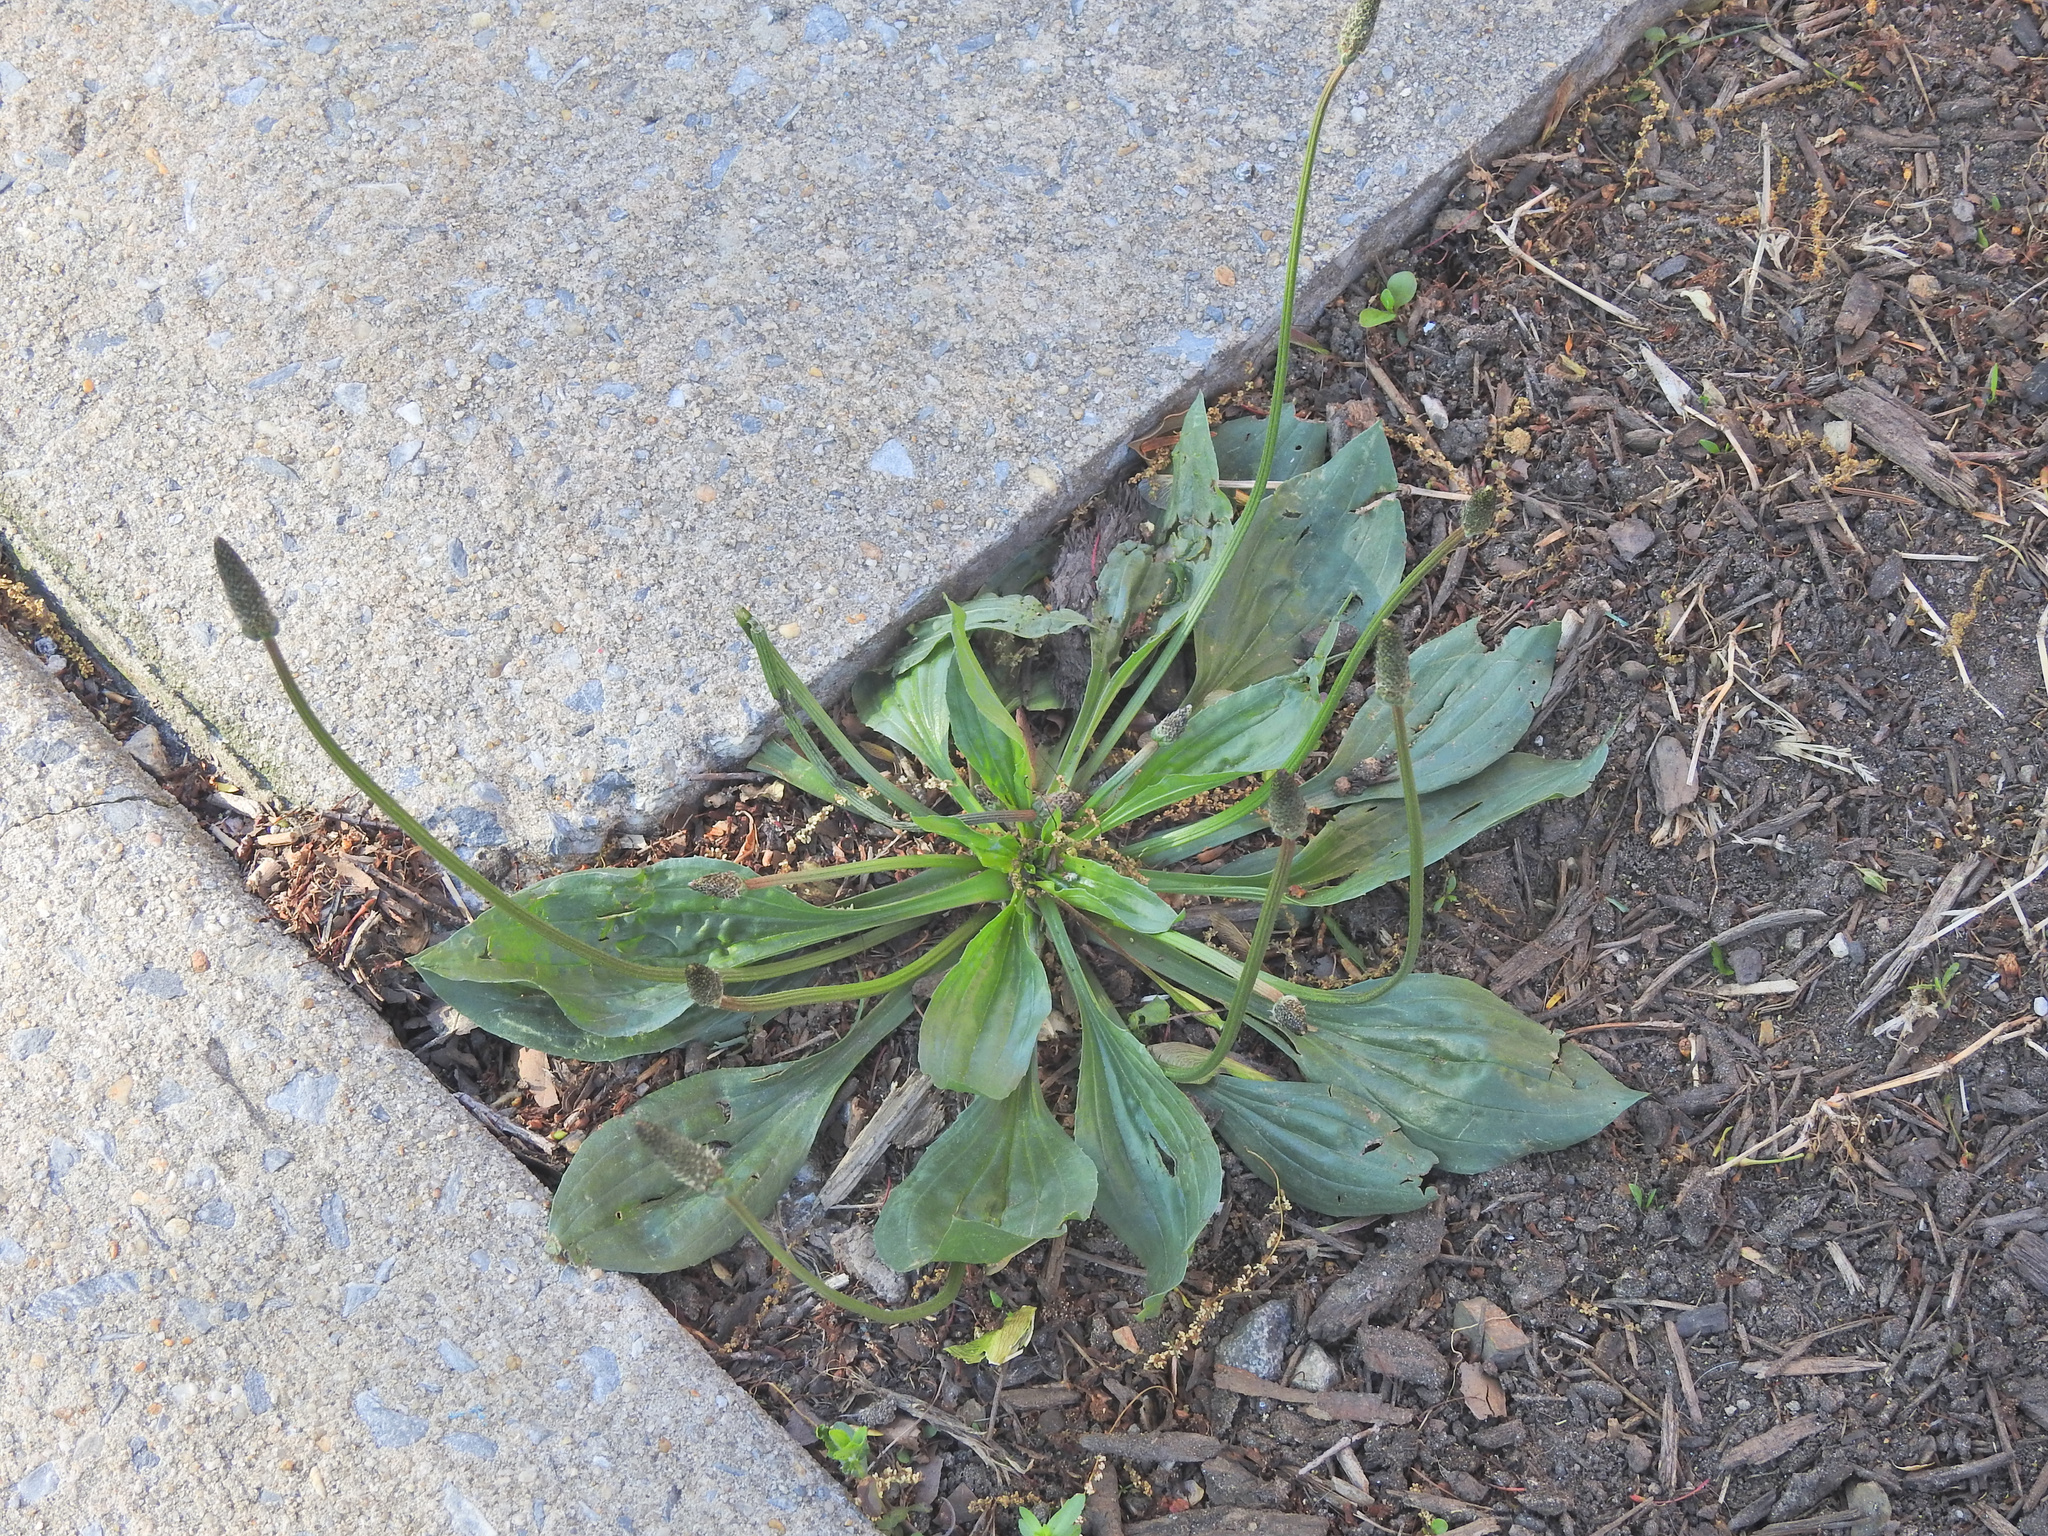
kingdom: Plantae
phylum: Tracheophyta
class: Magnoliopsida
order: Lamiales
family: Plantaginaceae
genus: Plantago
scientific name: Plantago major
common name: Common plantain
